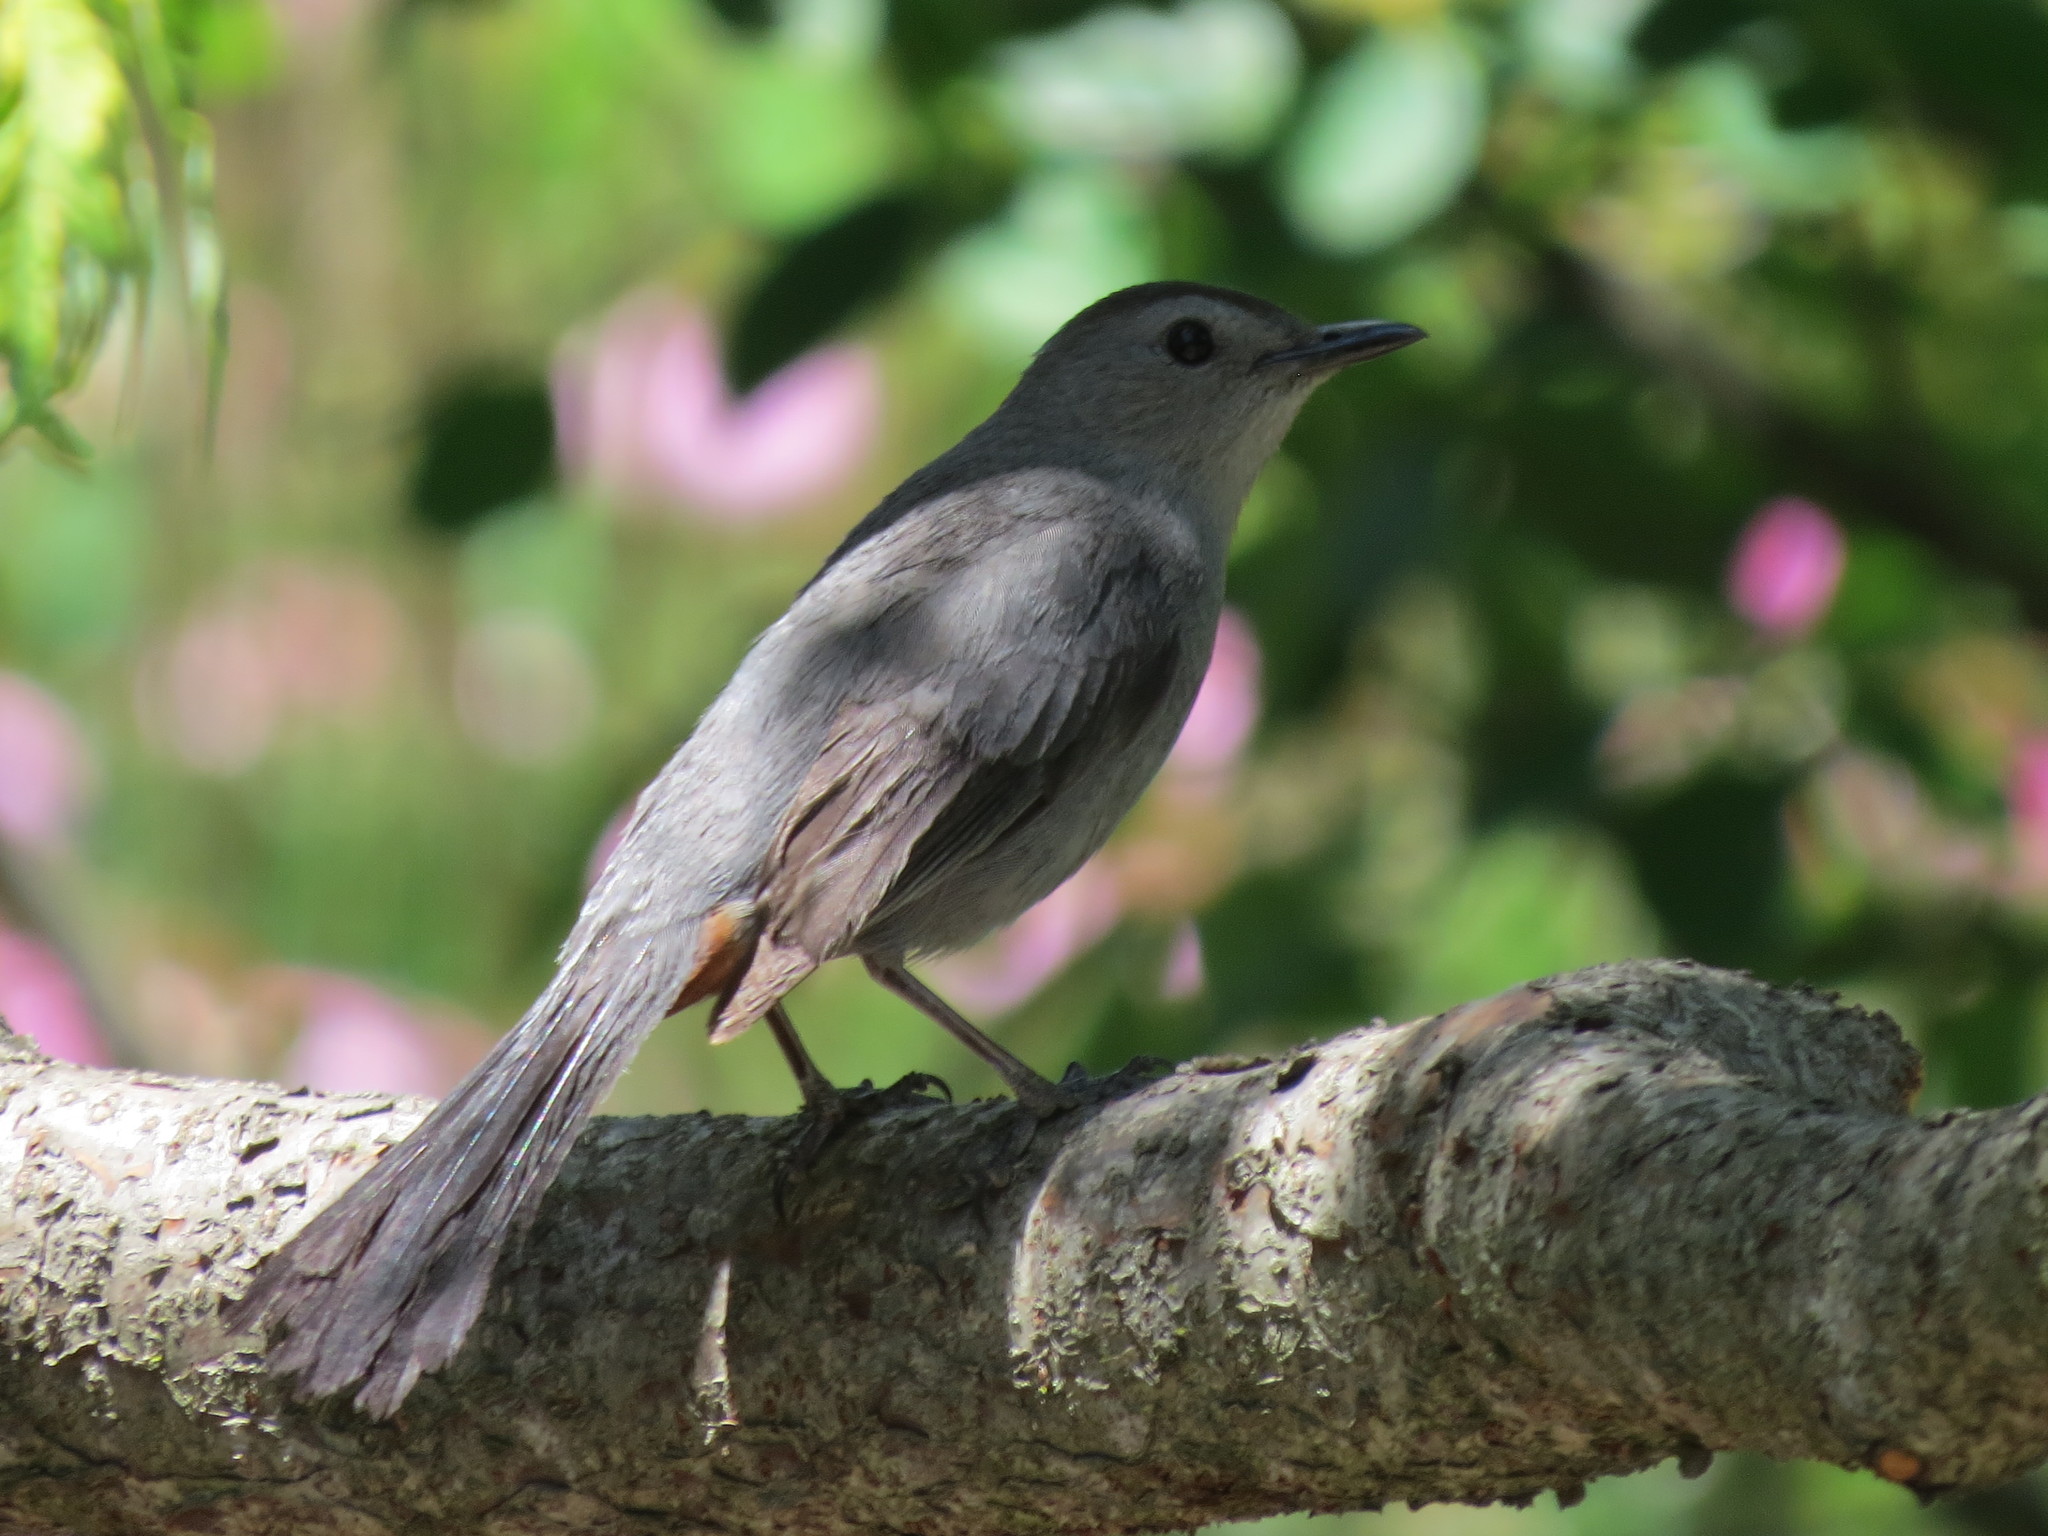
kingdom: Animalia
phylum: Chordata
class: Aves
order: Passeriformes
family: Mimidae
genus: Dumetella
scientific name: Dumetella carolinensis
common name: Gray catbird
